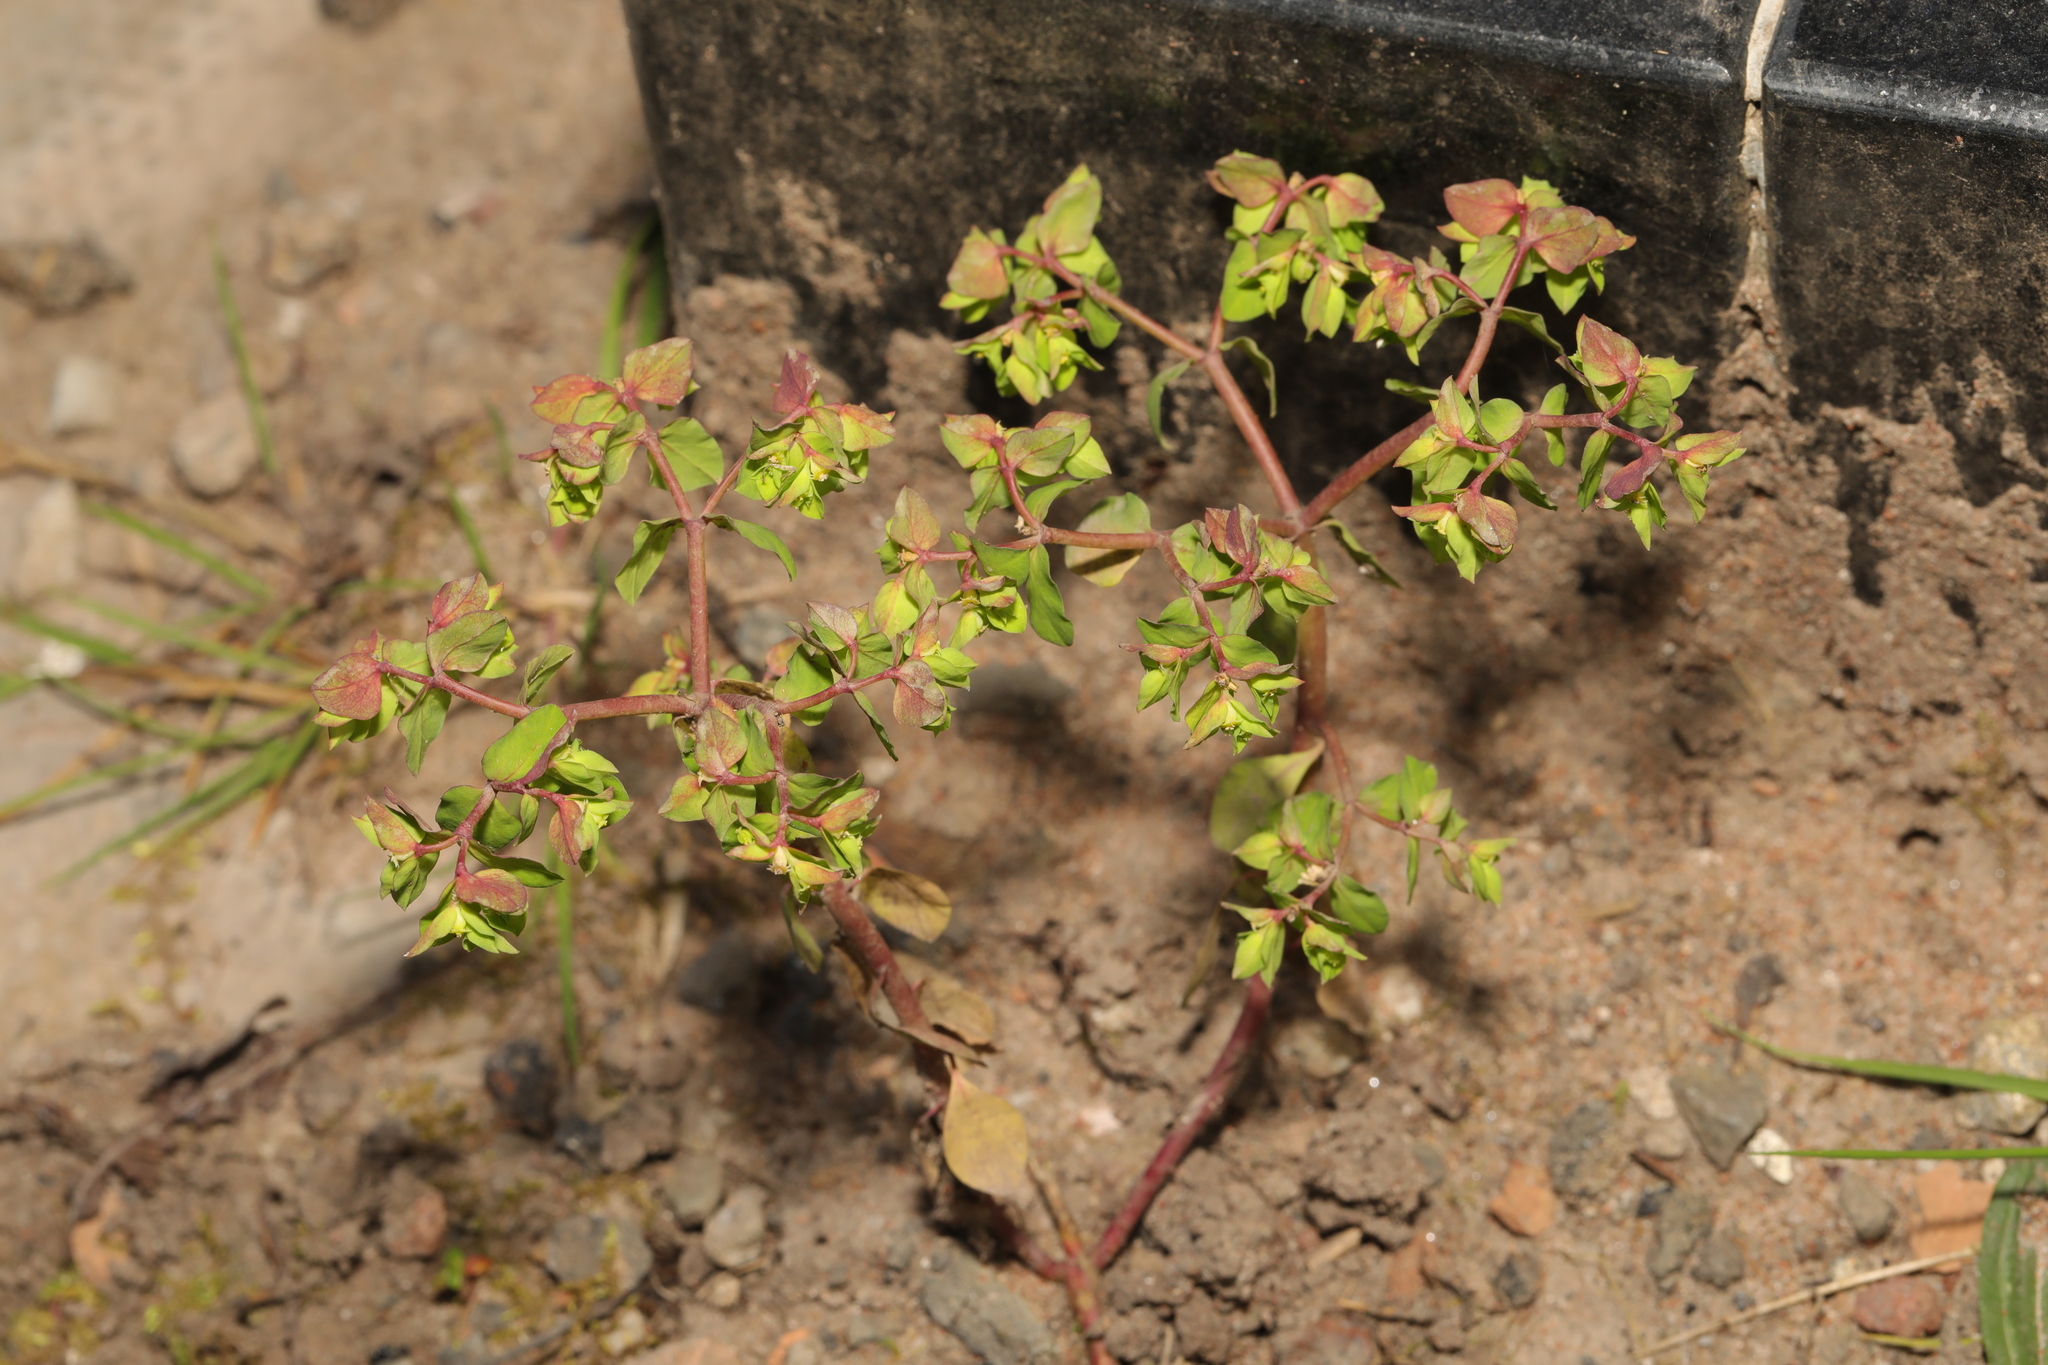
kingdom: Plantae
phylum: Tracheophyta
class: Magnoliopsida
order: Malpighiales
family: Euphorbiaceae
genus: Euphorbia
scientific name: Euphorbia peplus
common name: Petty spurge
